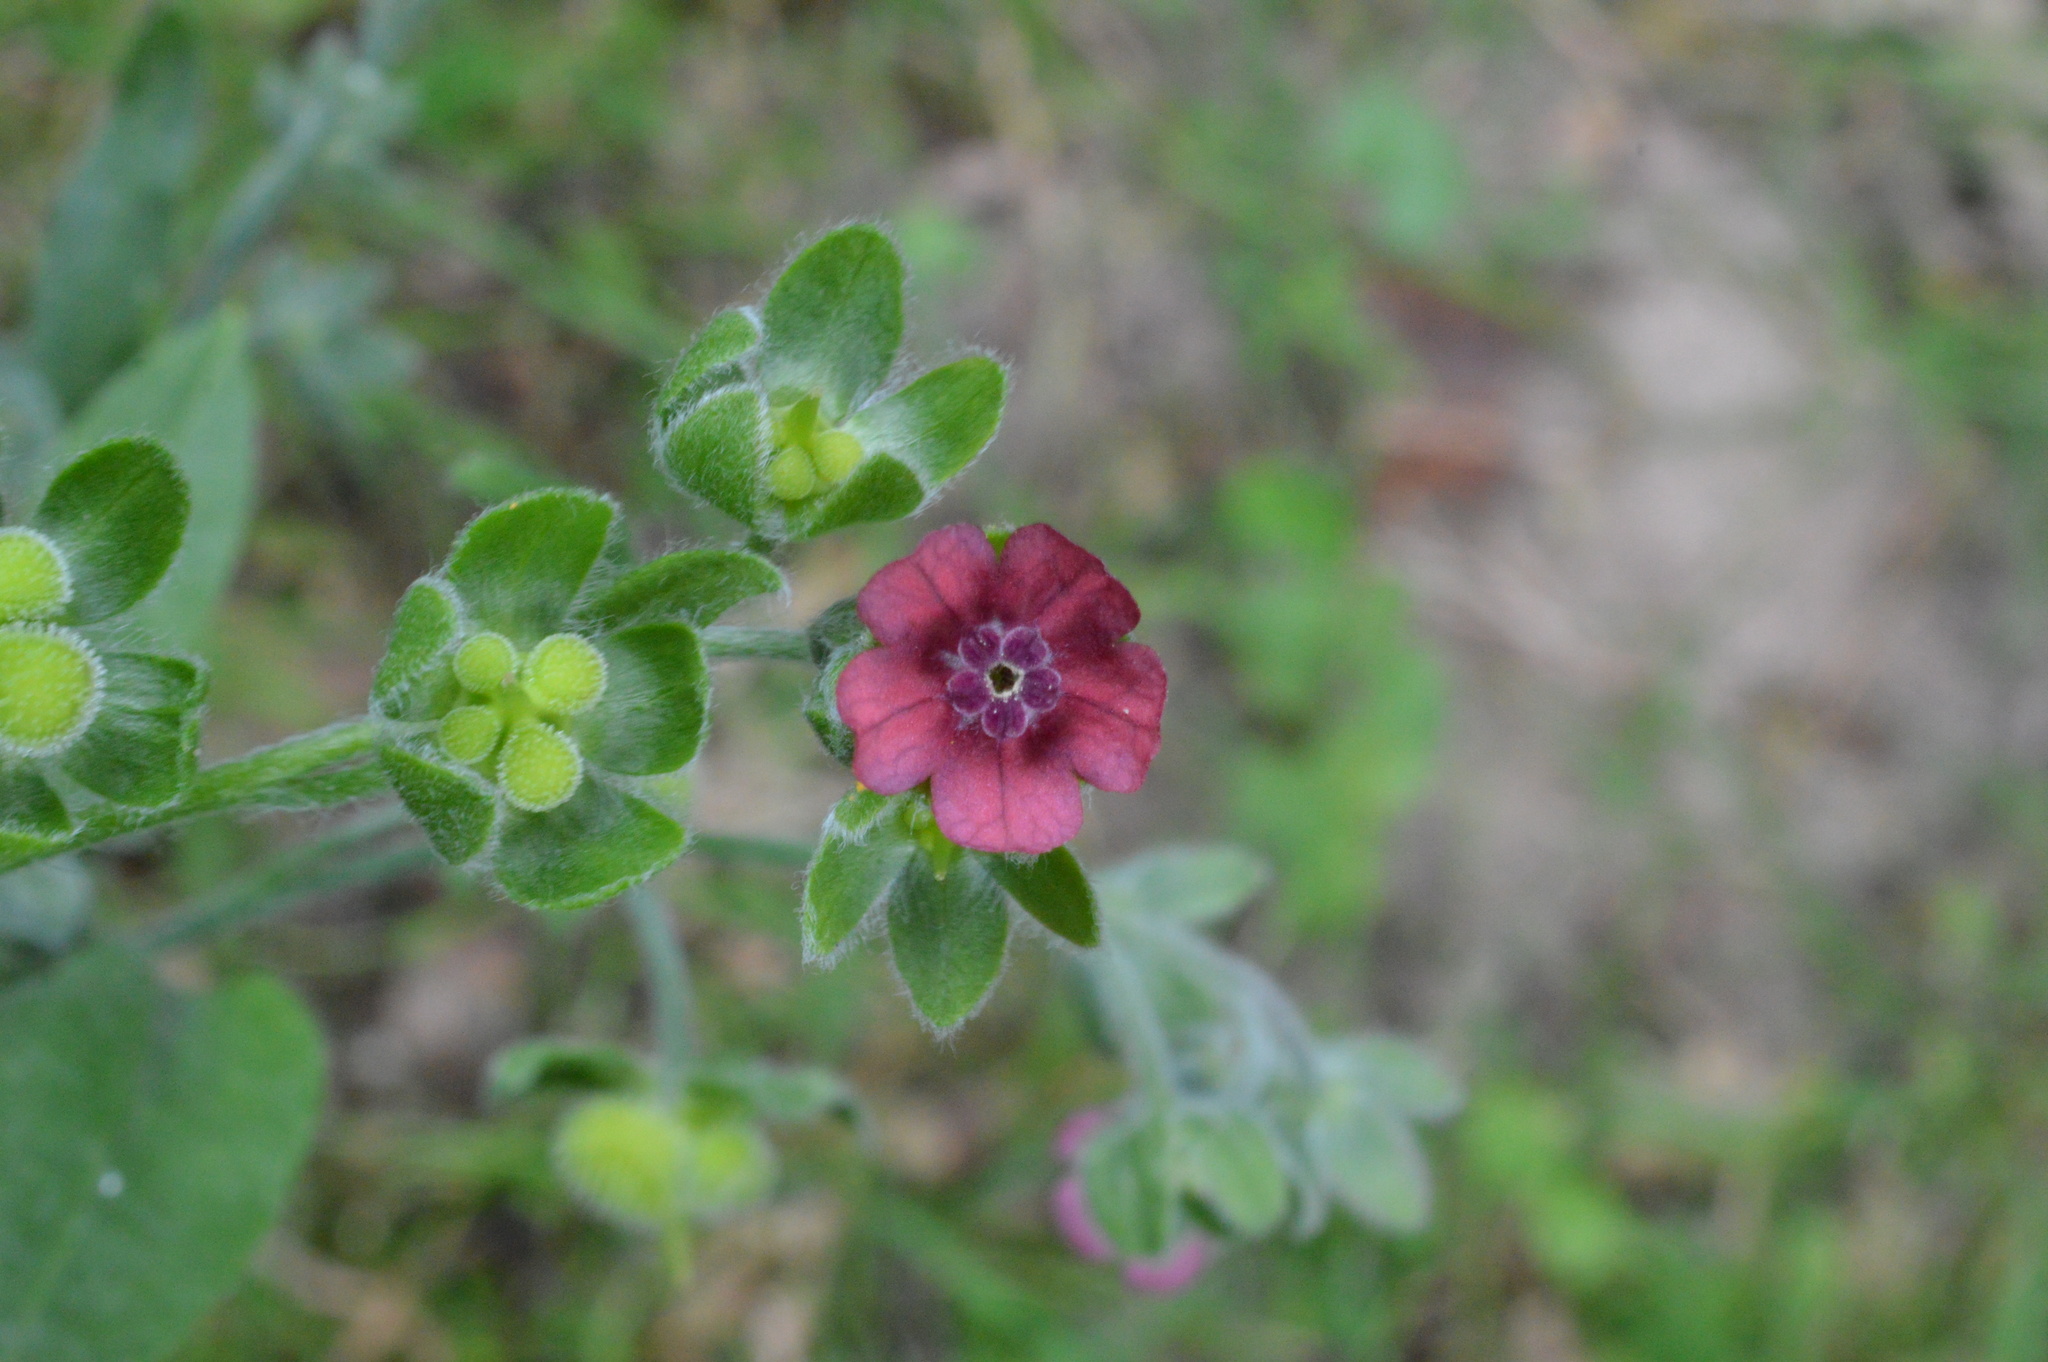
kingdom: Plantae
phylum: Tracheophyta
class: Magnoliopsida
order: Boraginales
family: Boraginaceae
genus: Cynoglossum
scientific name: Cynoglossum officinale
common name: Hound's-tongue
